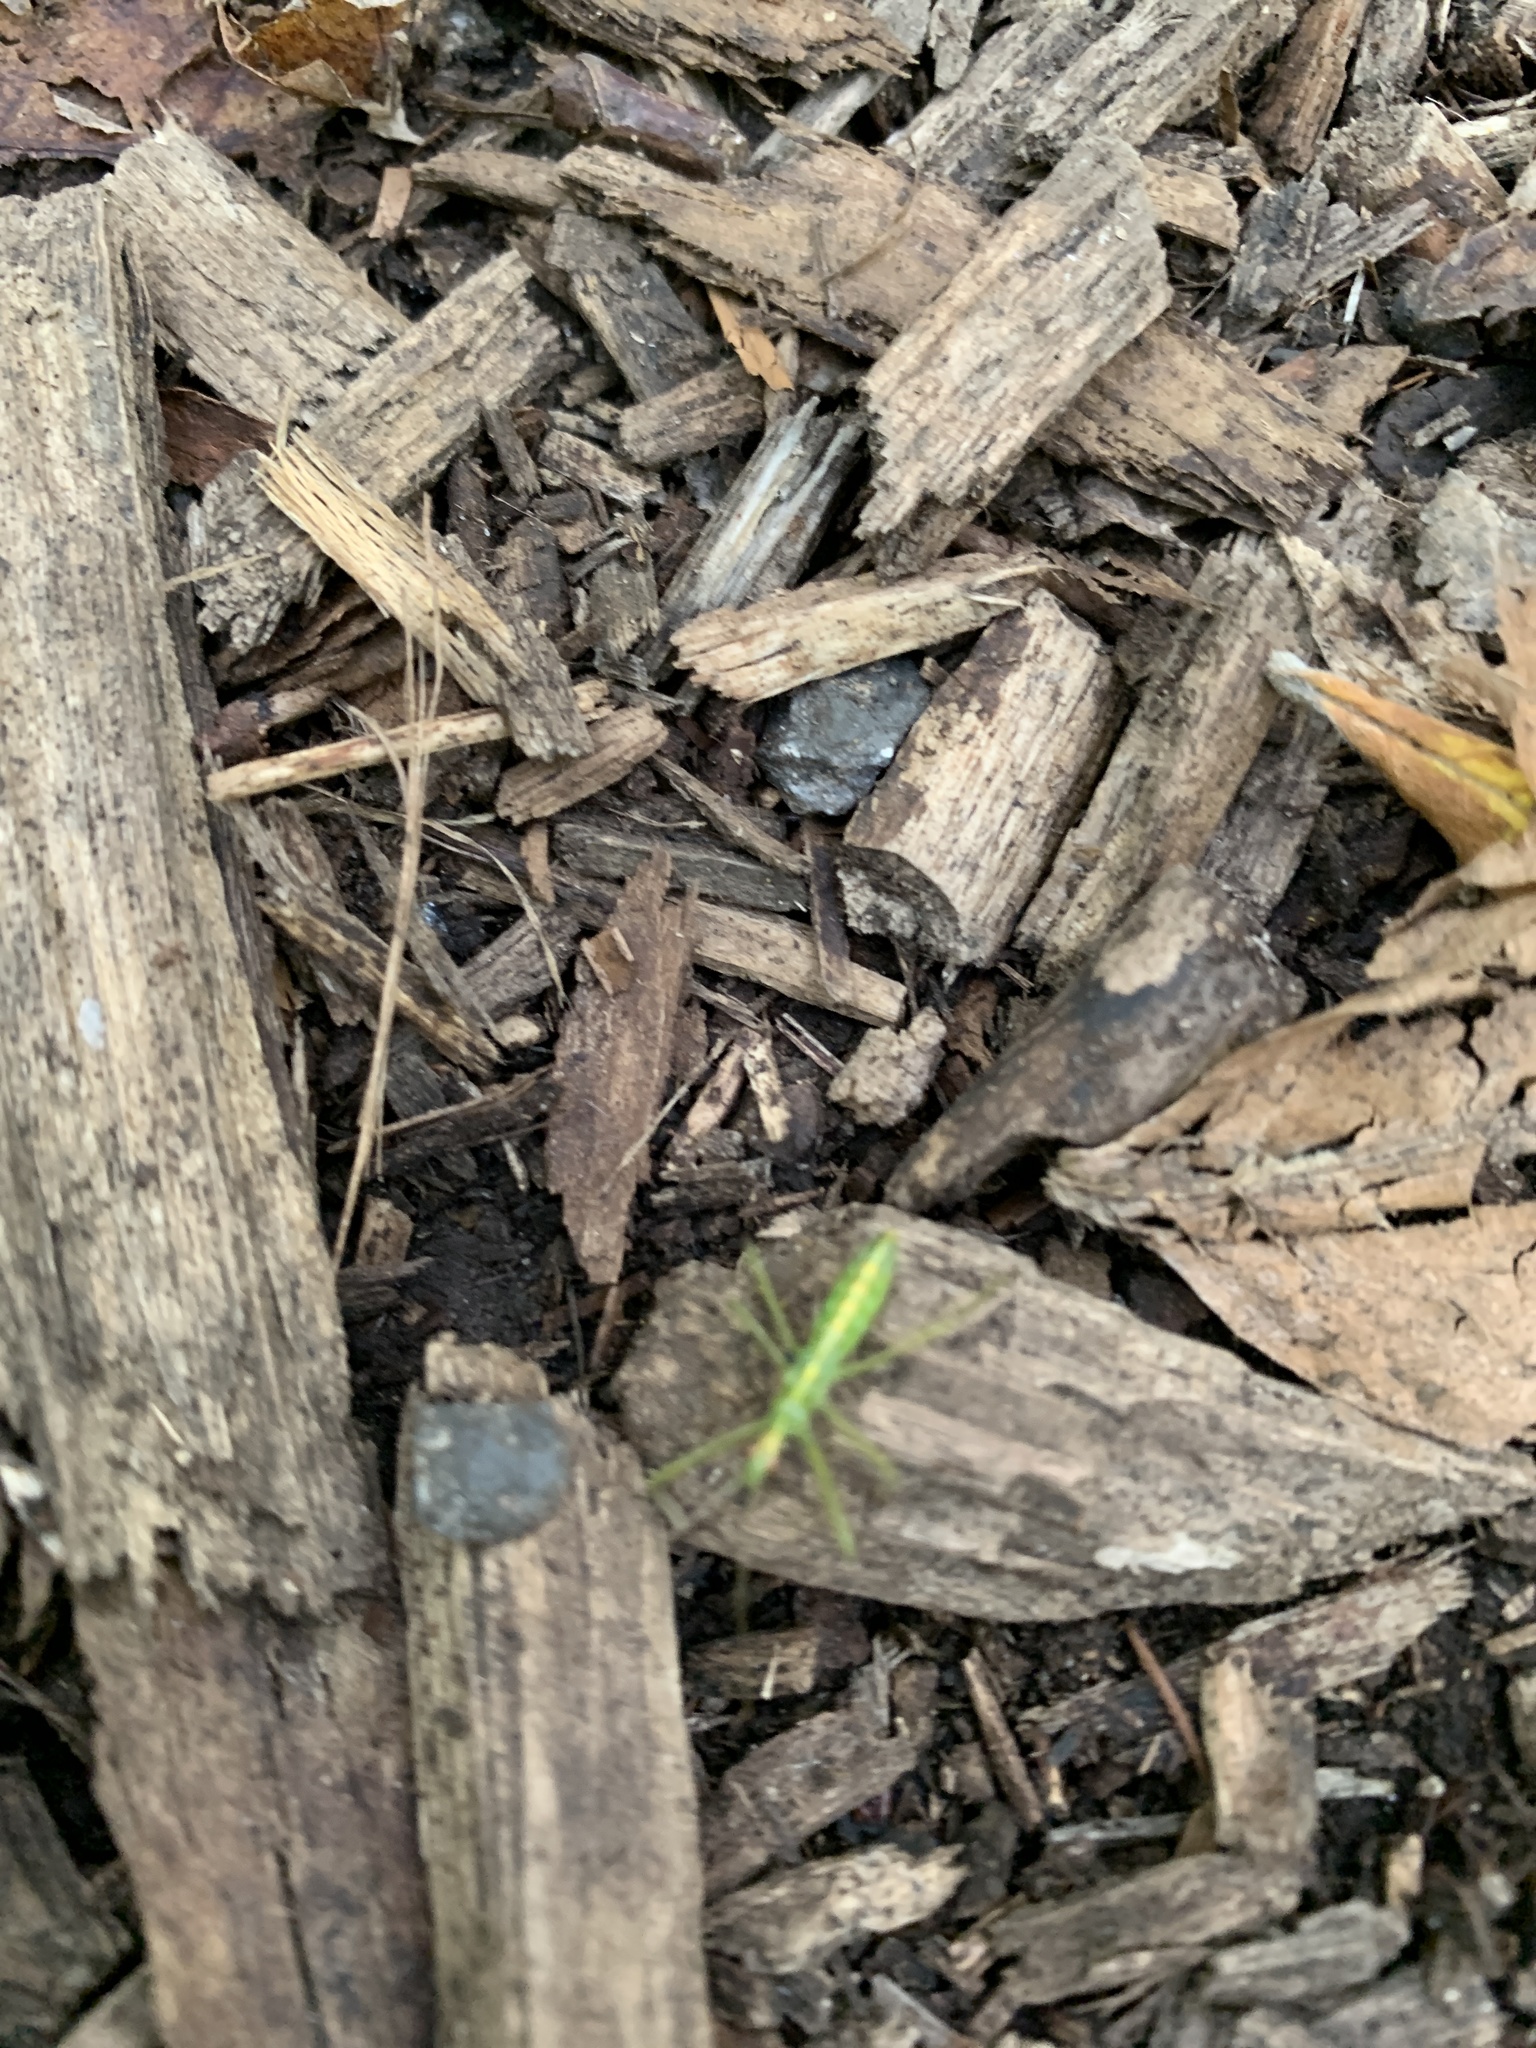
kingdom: Animalia
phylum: Arthropoda
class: Insecta
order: Hemiptera
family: Reduviidae
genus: Zelus
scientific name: Zelus luridus
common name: Pale green assassin bug
